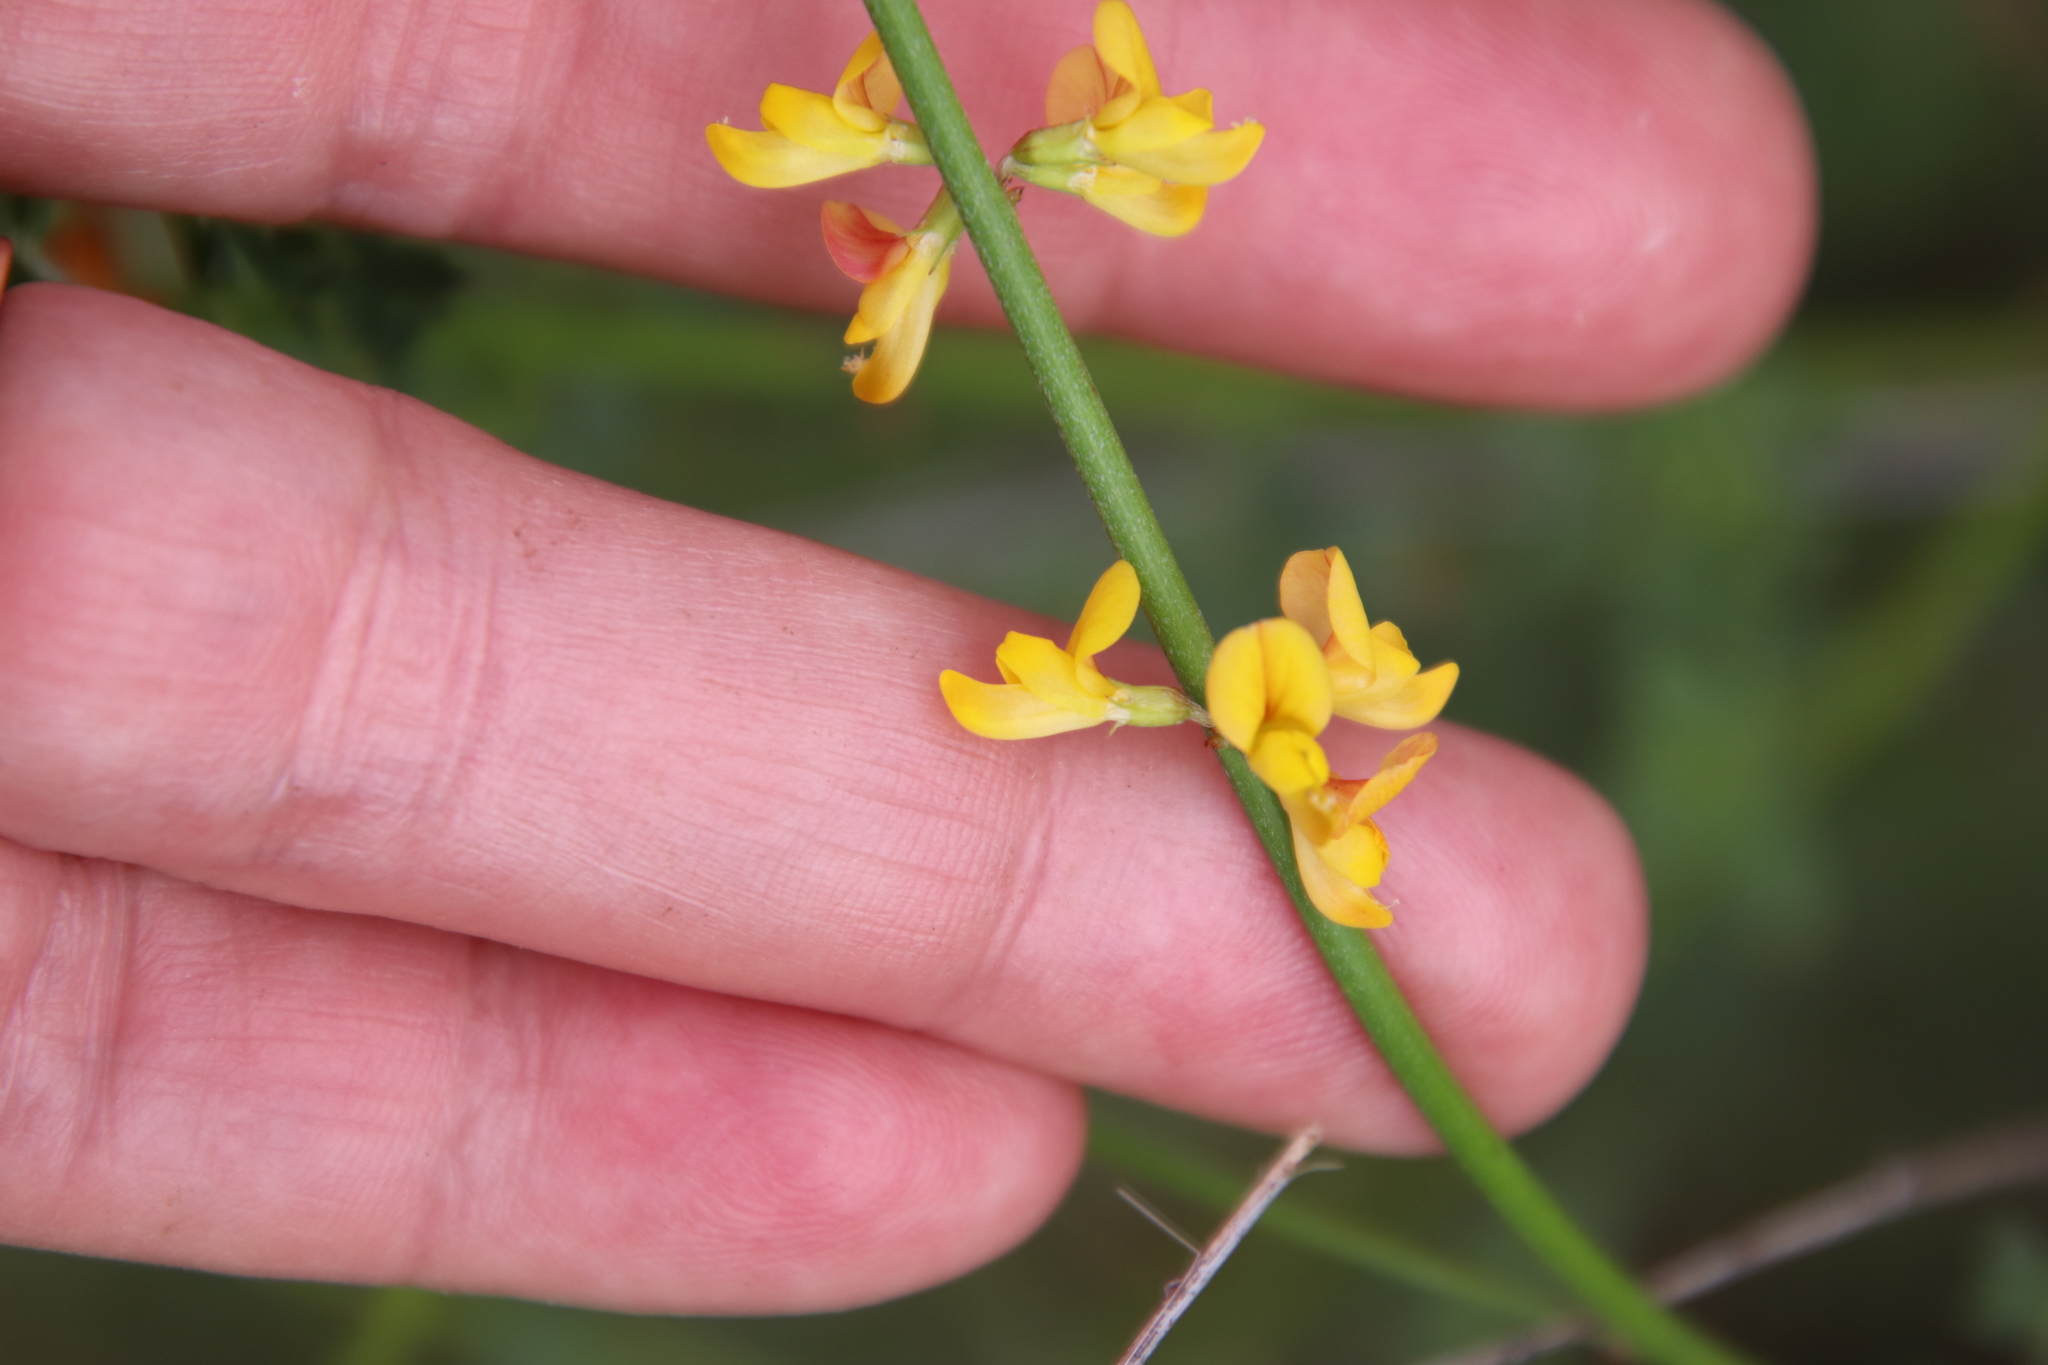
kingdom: Plantae
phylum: Tracheophyta
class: Magnoliopsida
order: Fabales
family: Fabaceae
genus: Acmispon
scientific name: Acmispon glaber
